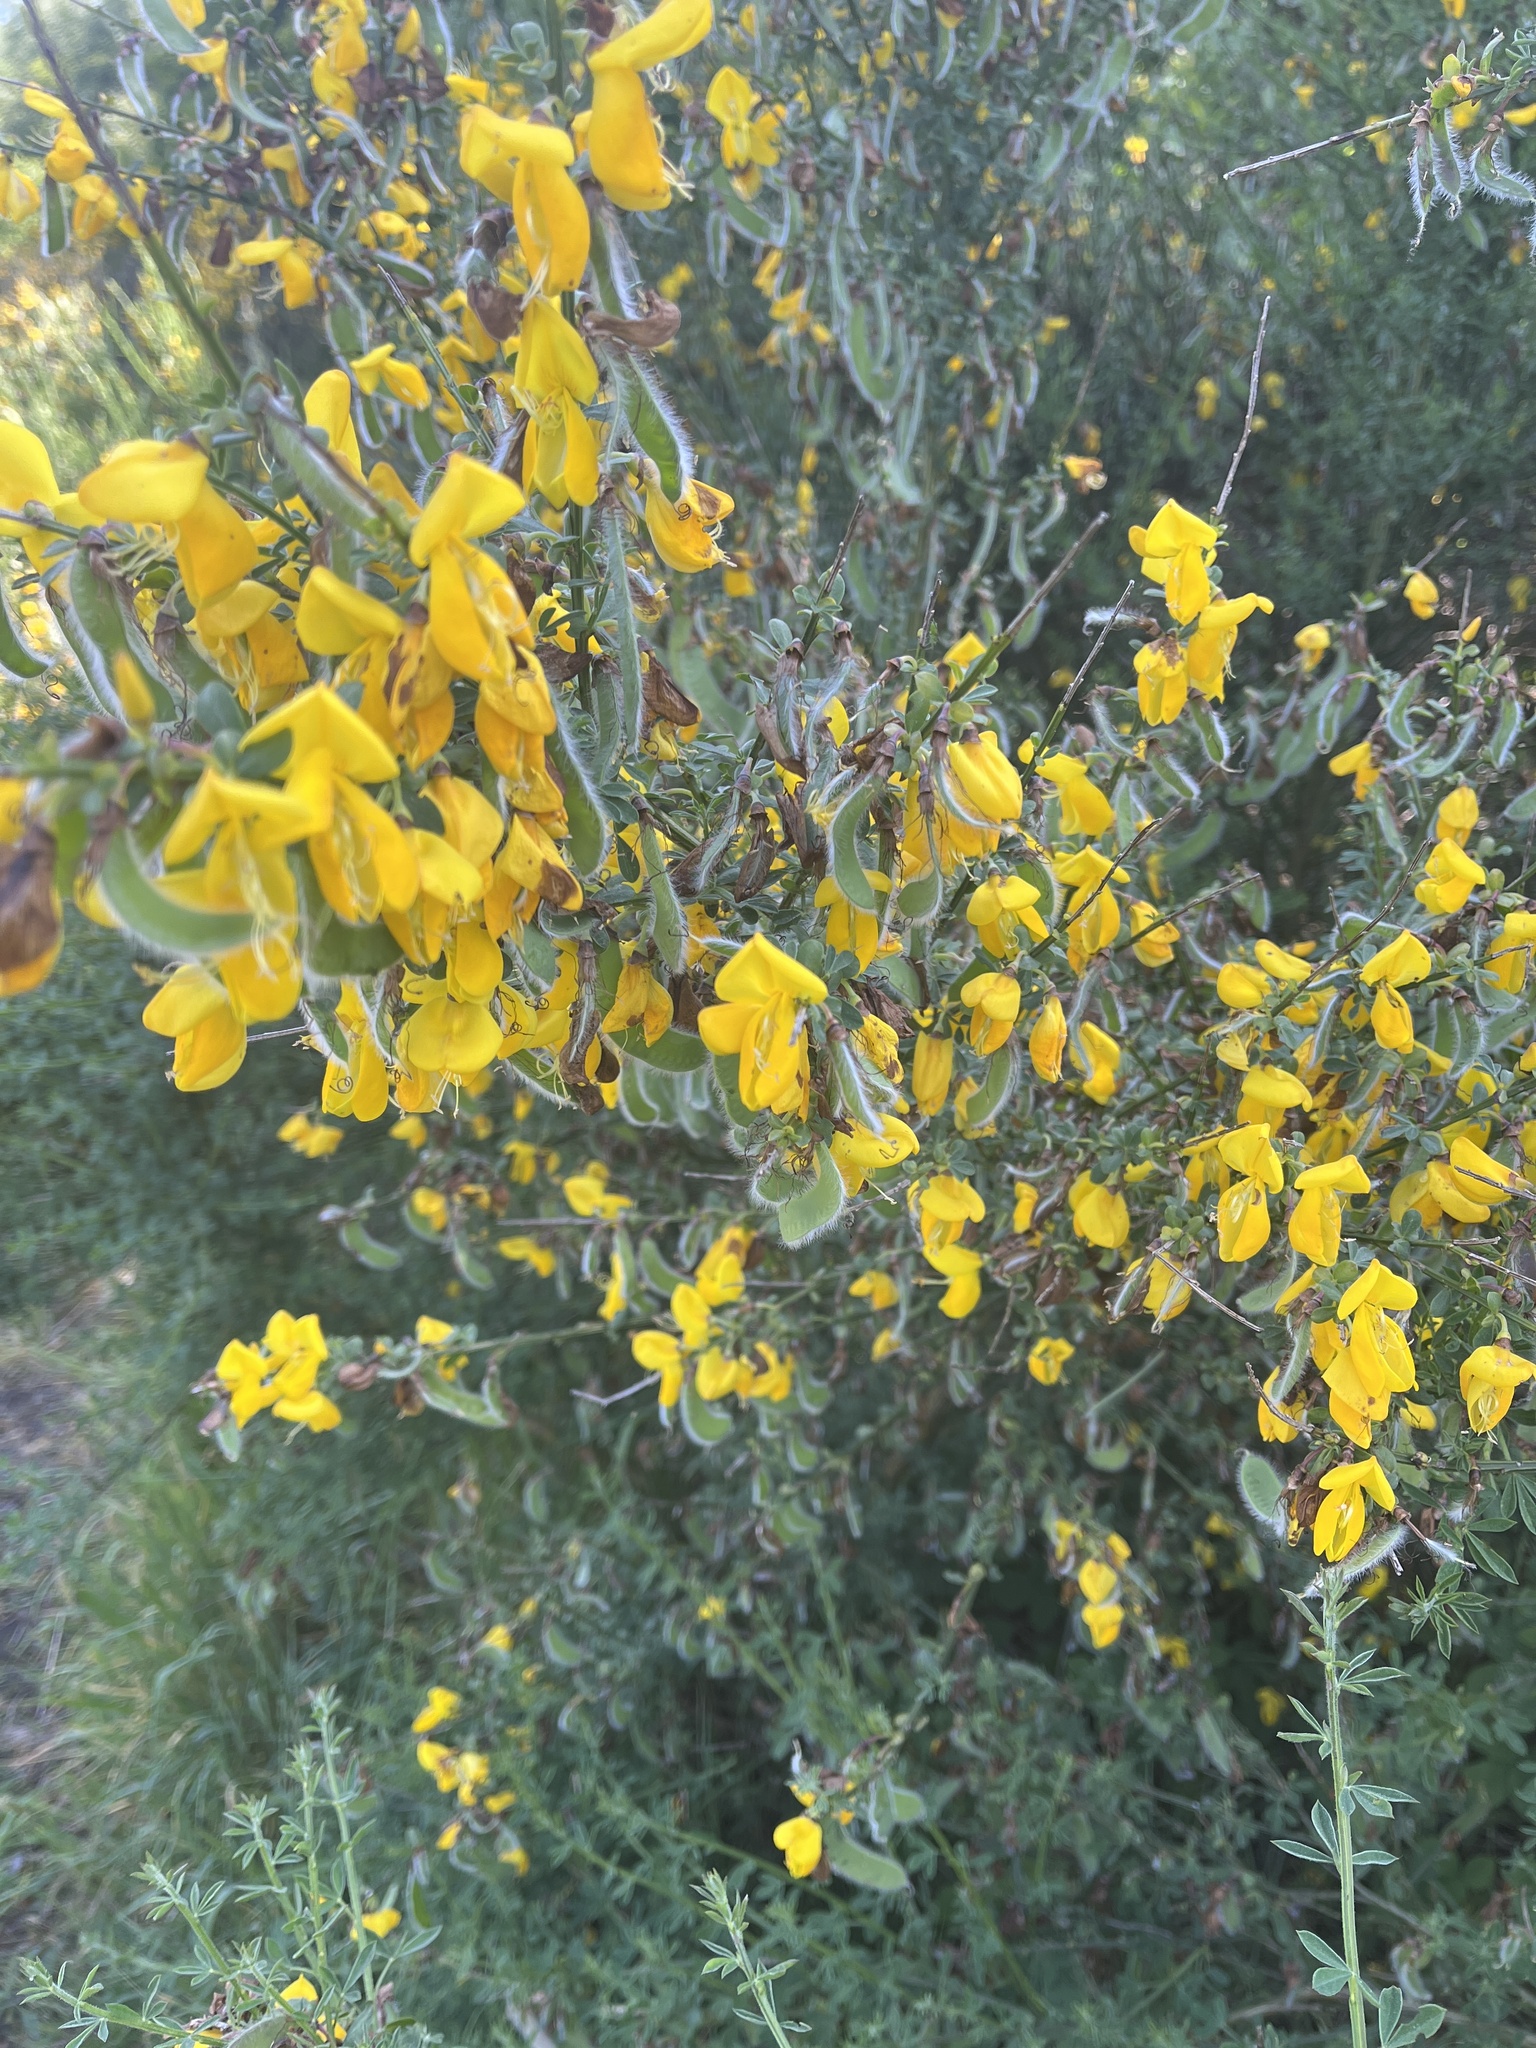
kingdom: Plantae
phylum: Tracheophyta
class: Magnoliopsida
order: Fabales
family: Fabaceae
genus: Cytisus
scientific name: Cytisus scoparius
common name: Scotch broom
